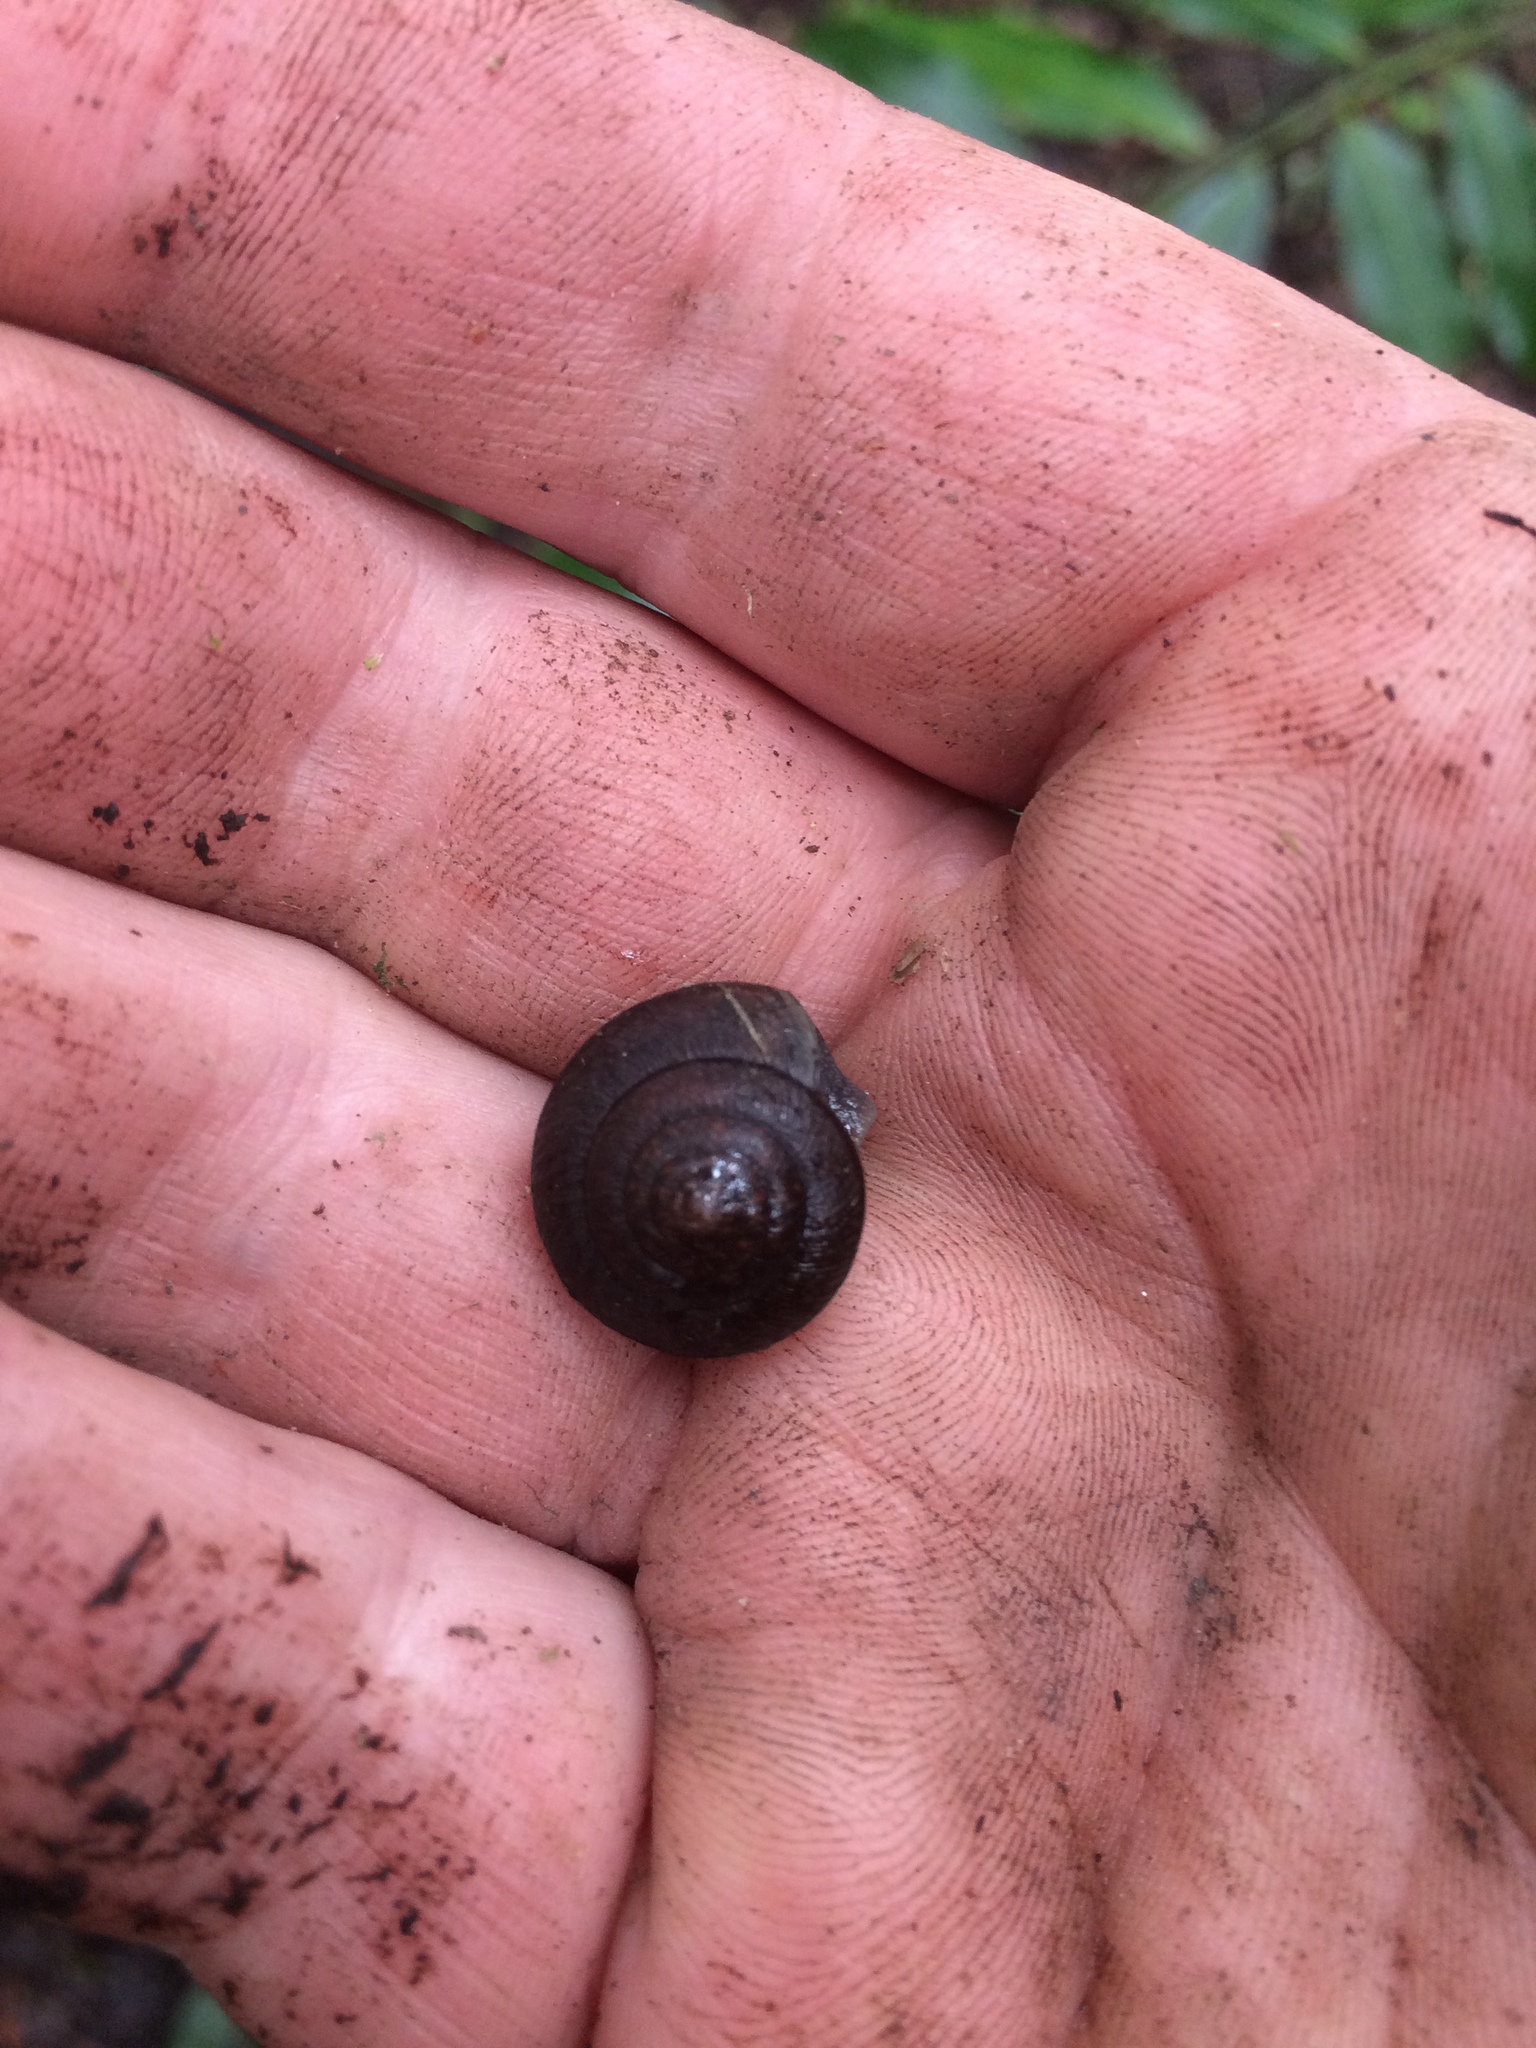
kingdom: Animalia
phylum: Mollusca
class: Gastropoda
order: Stylommatophora
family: Xanthonychidae
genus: Helminthoglypta
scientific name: Helminthoglypta nickliniana
